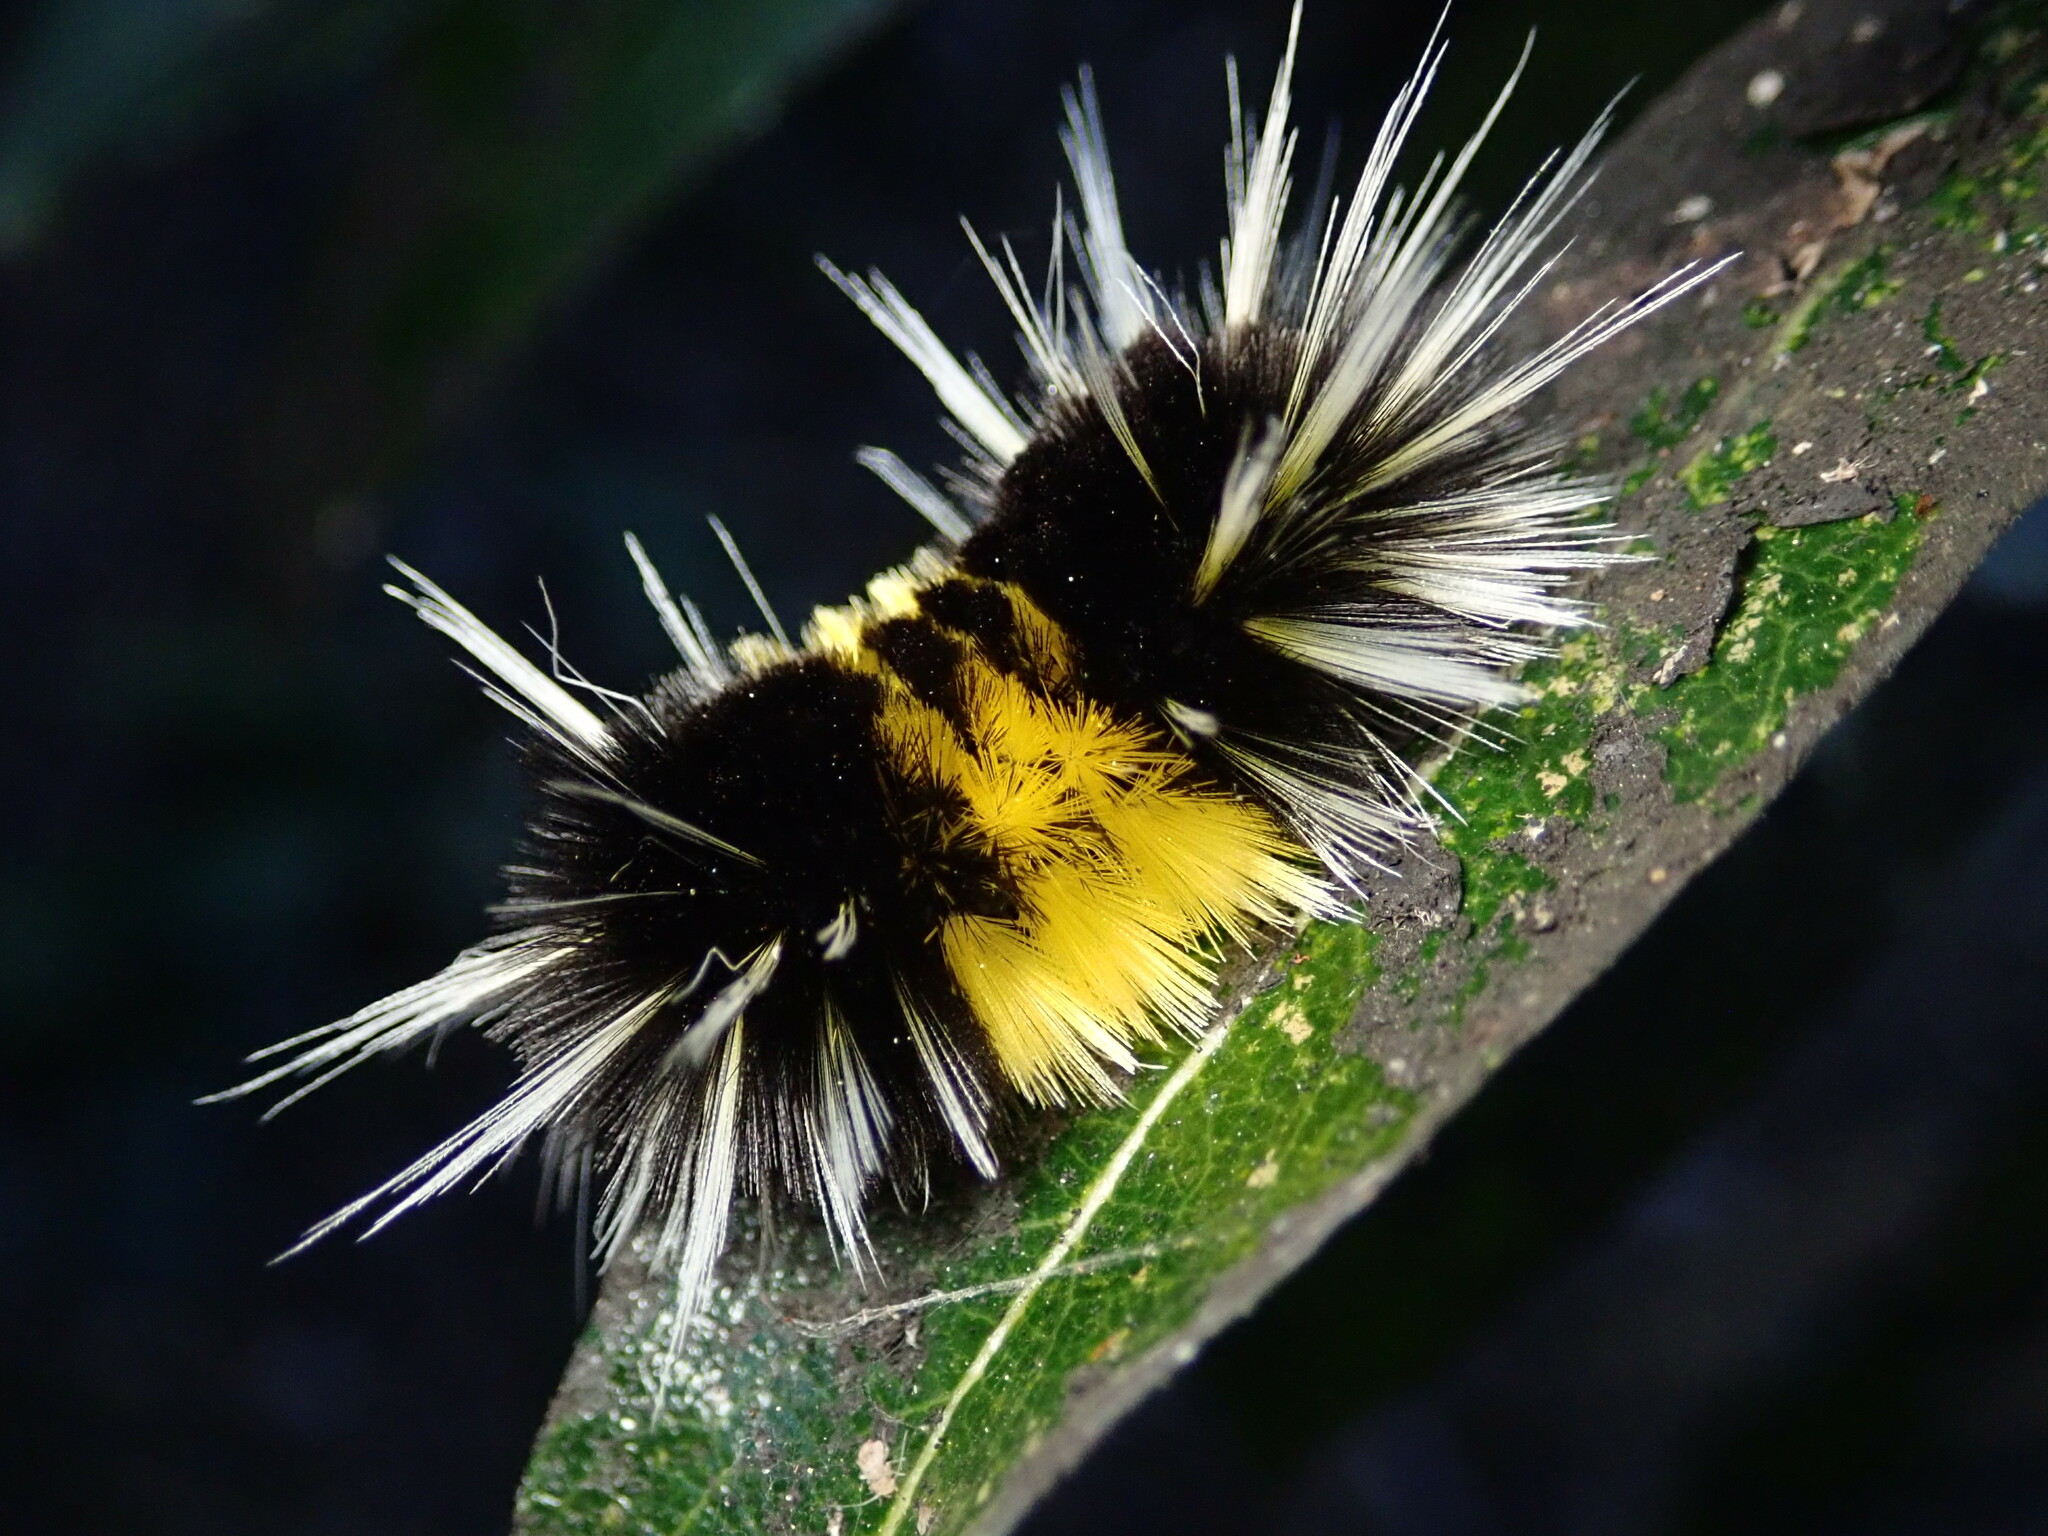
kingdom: Animalia
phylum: Arthropoda
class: Insecta
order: Lepidoptera
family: Erebidae
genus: Lophocampa
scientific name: Lophocampa maculata
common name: Spotted tussock moth
